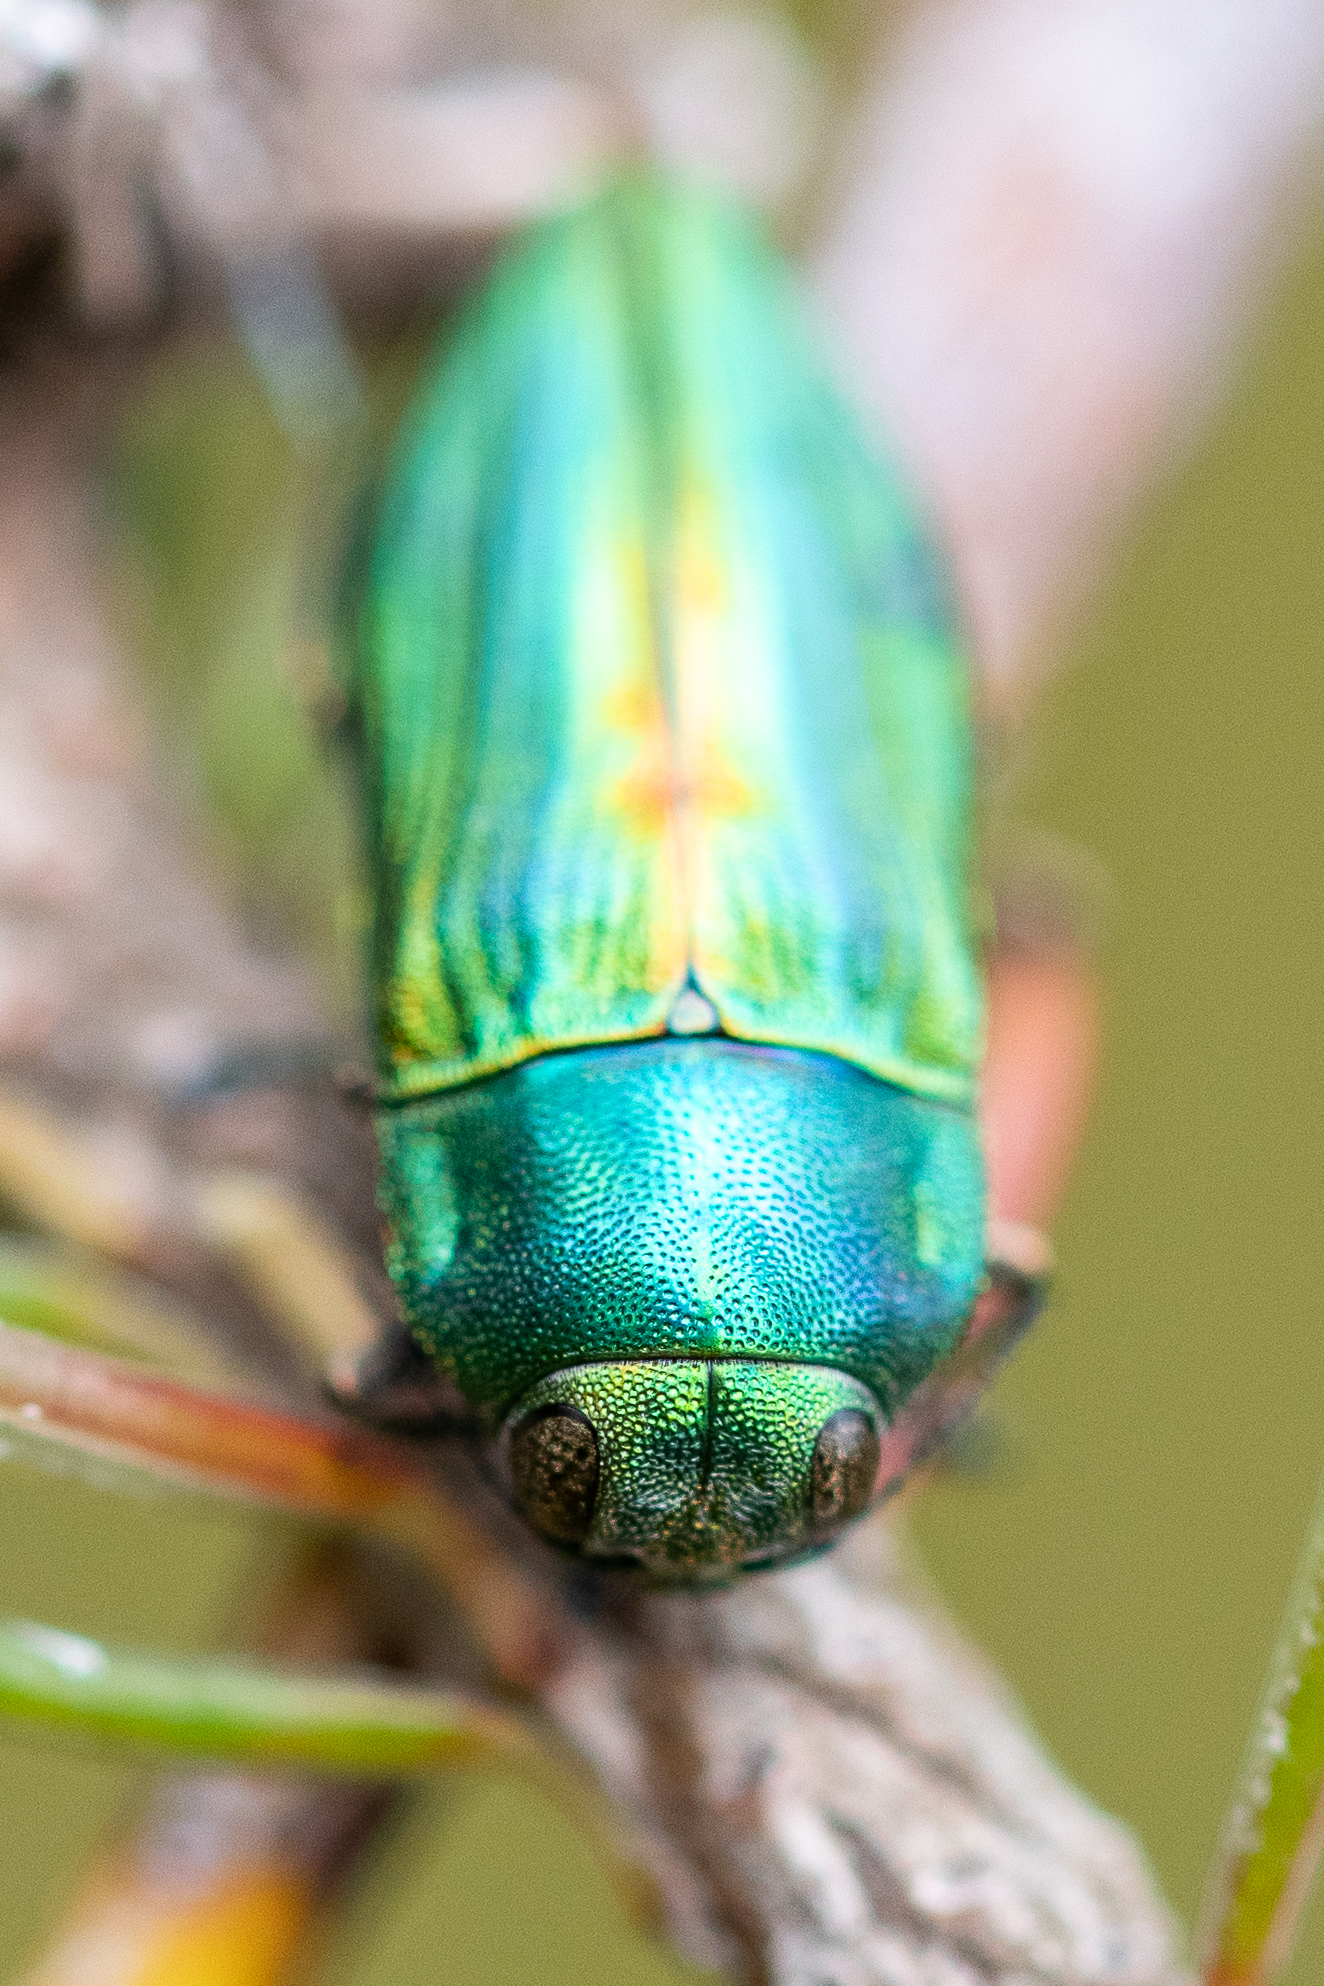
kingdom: Animalia
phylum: Arthropoda
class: Insecta
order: Coleoptera
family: Buprestidae
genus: Aristosoma
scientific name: Aristosoma suturale
